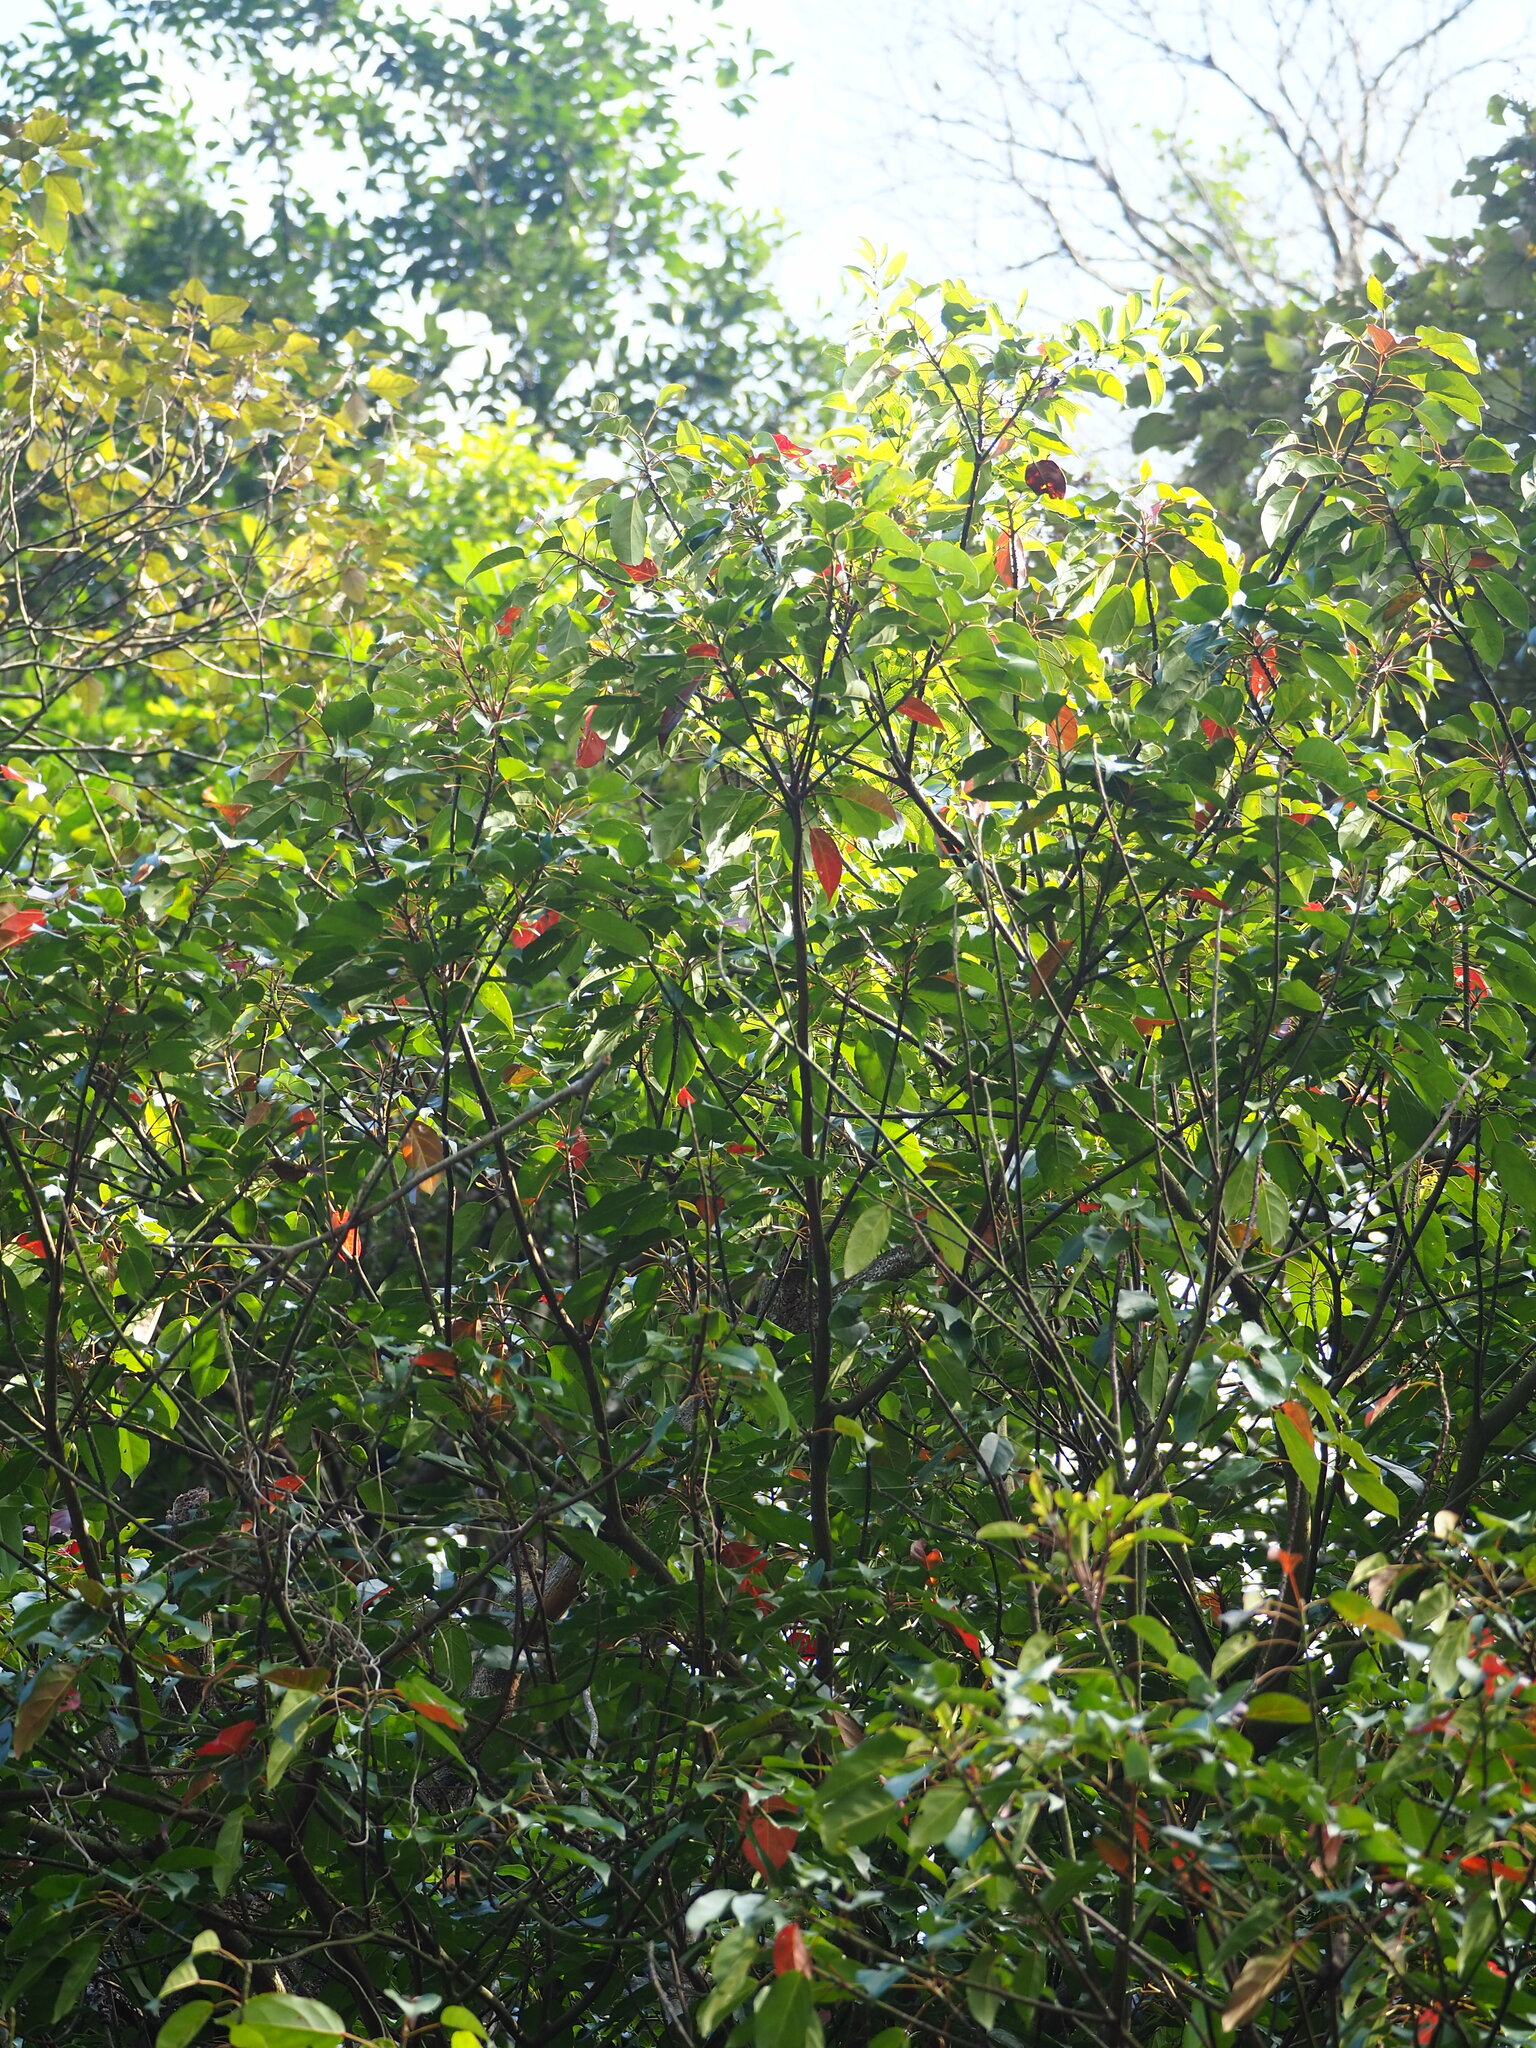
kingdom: Plantae
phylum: Tracheophyta
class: Magnoliopsida
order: Oxalidales
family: Elaeocarpaceae
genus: Elaeocarpus
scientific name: Elaeocarpus japonicus
